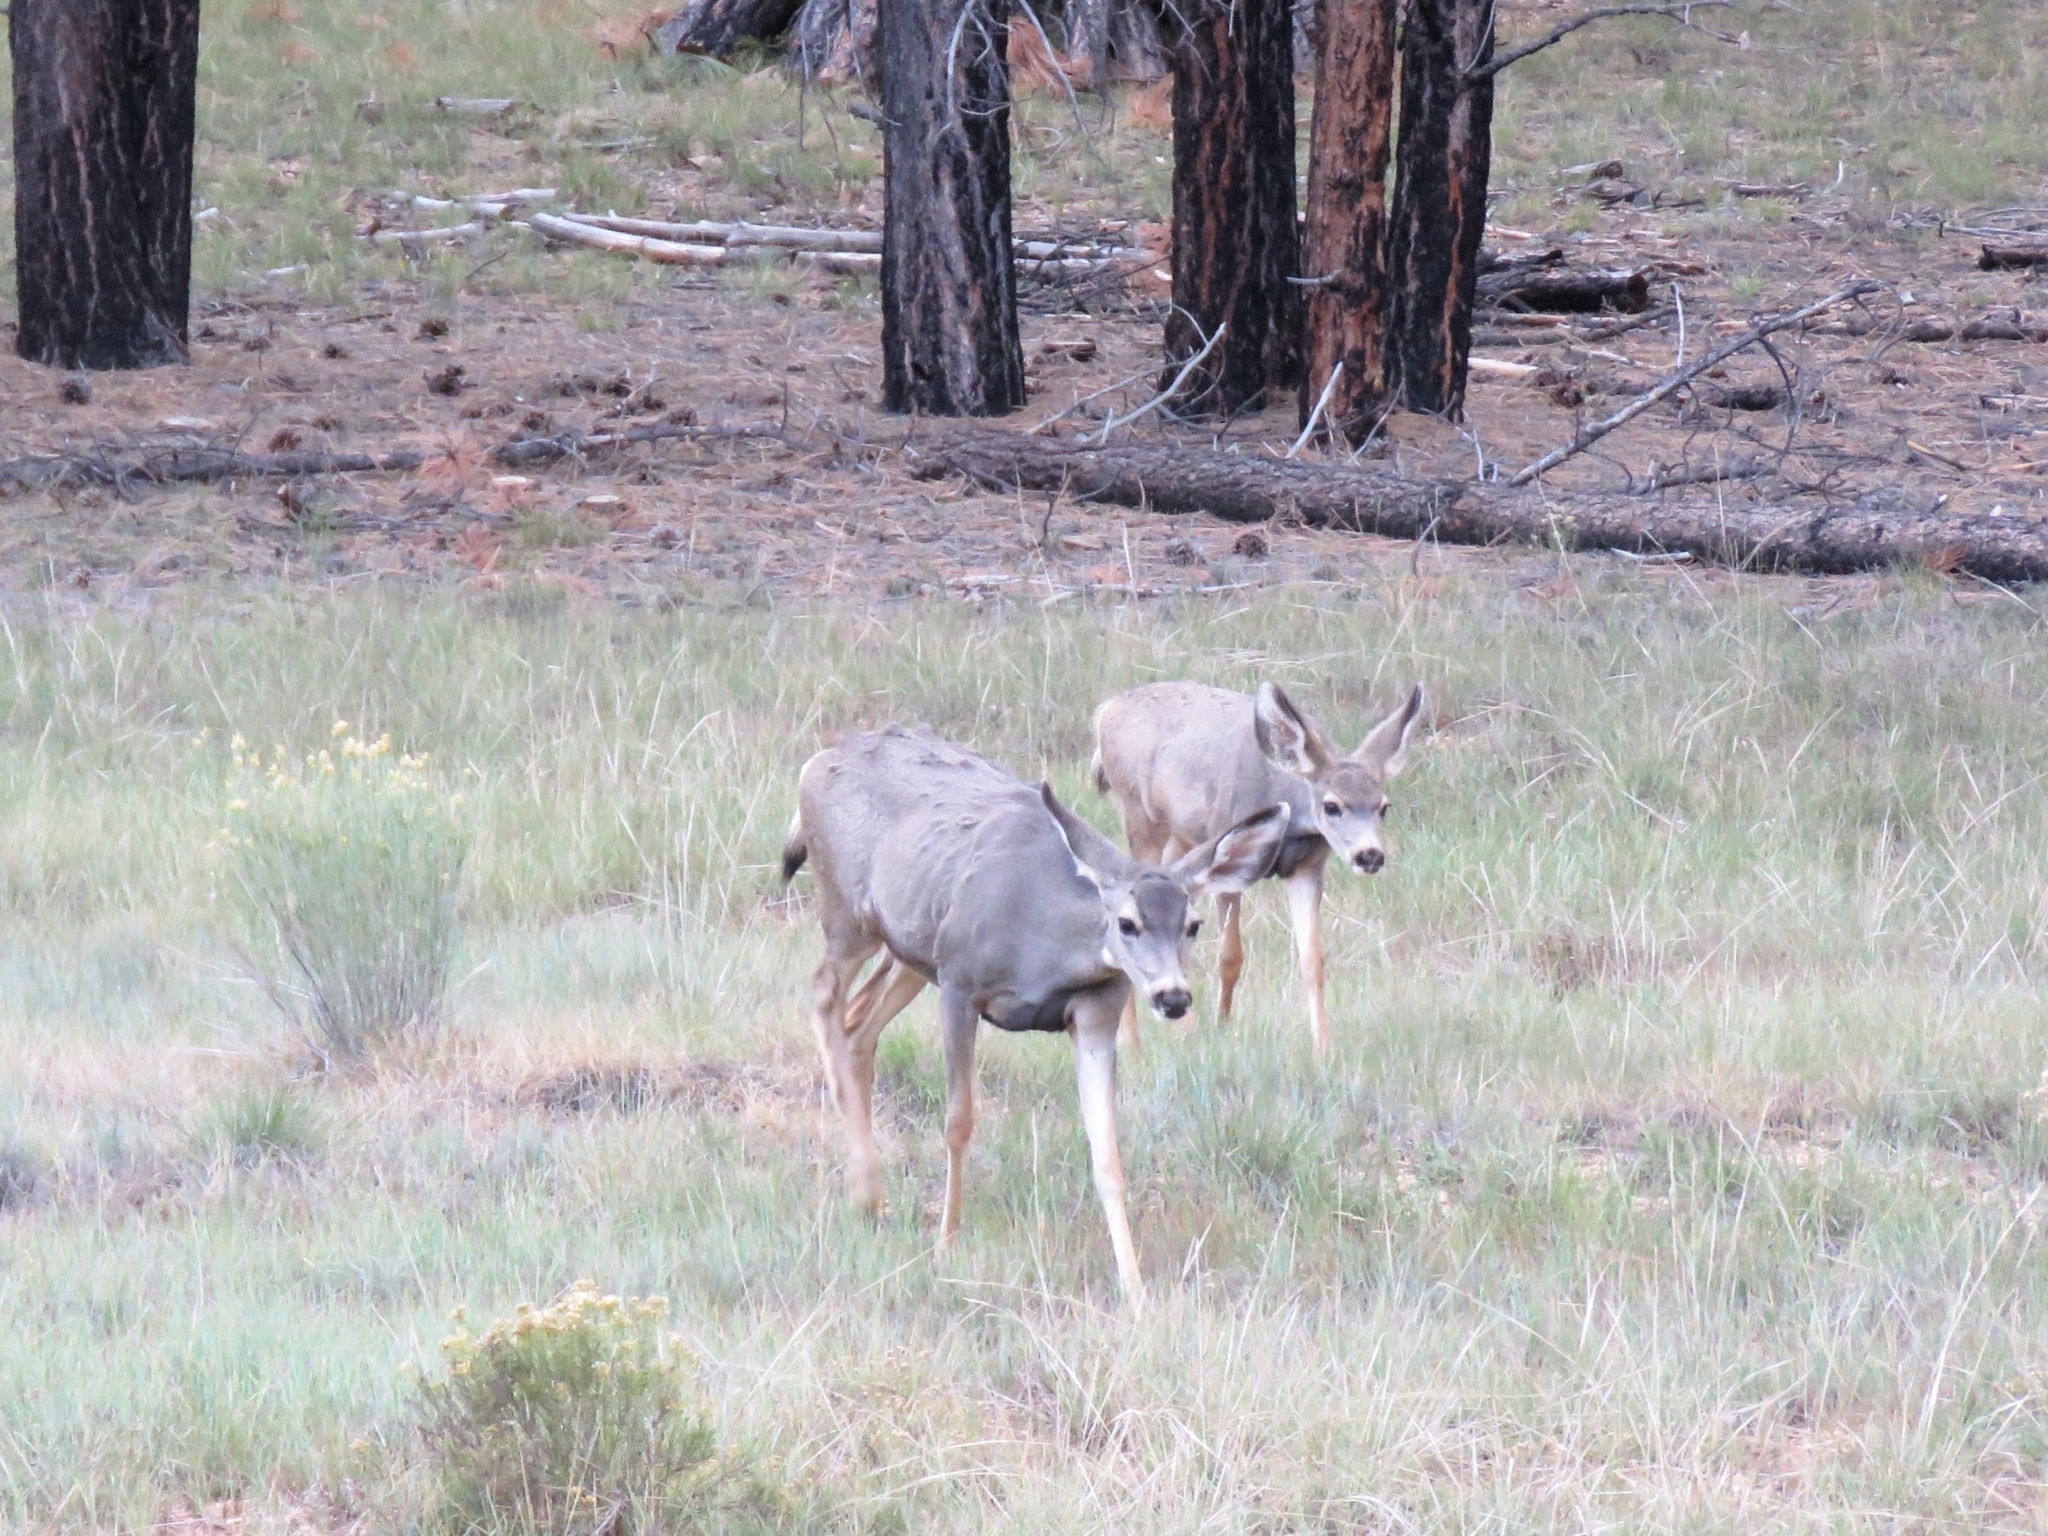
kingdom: Animalia
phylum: Chordata
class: Mammalia
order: Artiodactyla
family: Cervidae
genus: Odocoileus
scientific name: Odocoileus hemionus
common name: Mule deer
